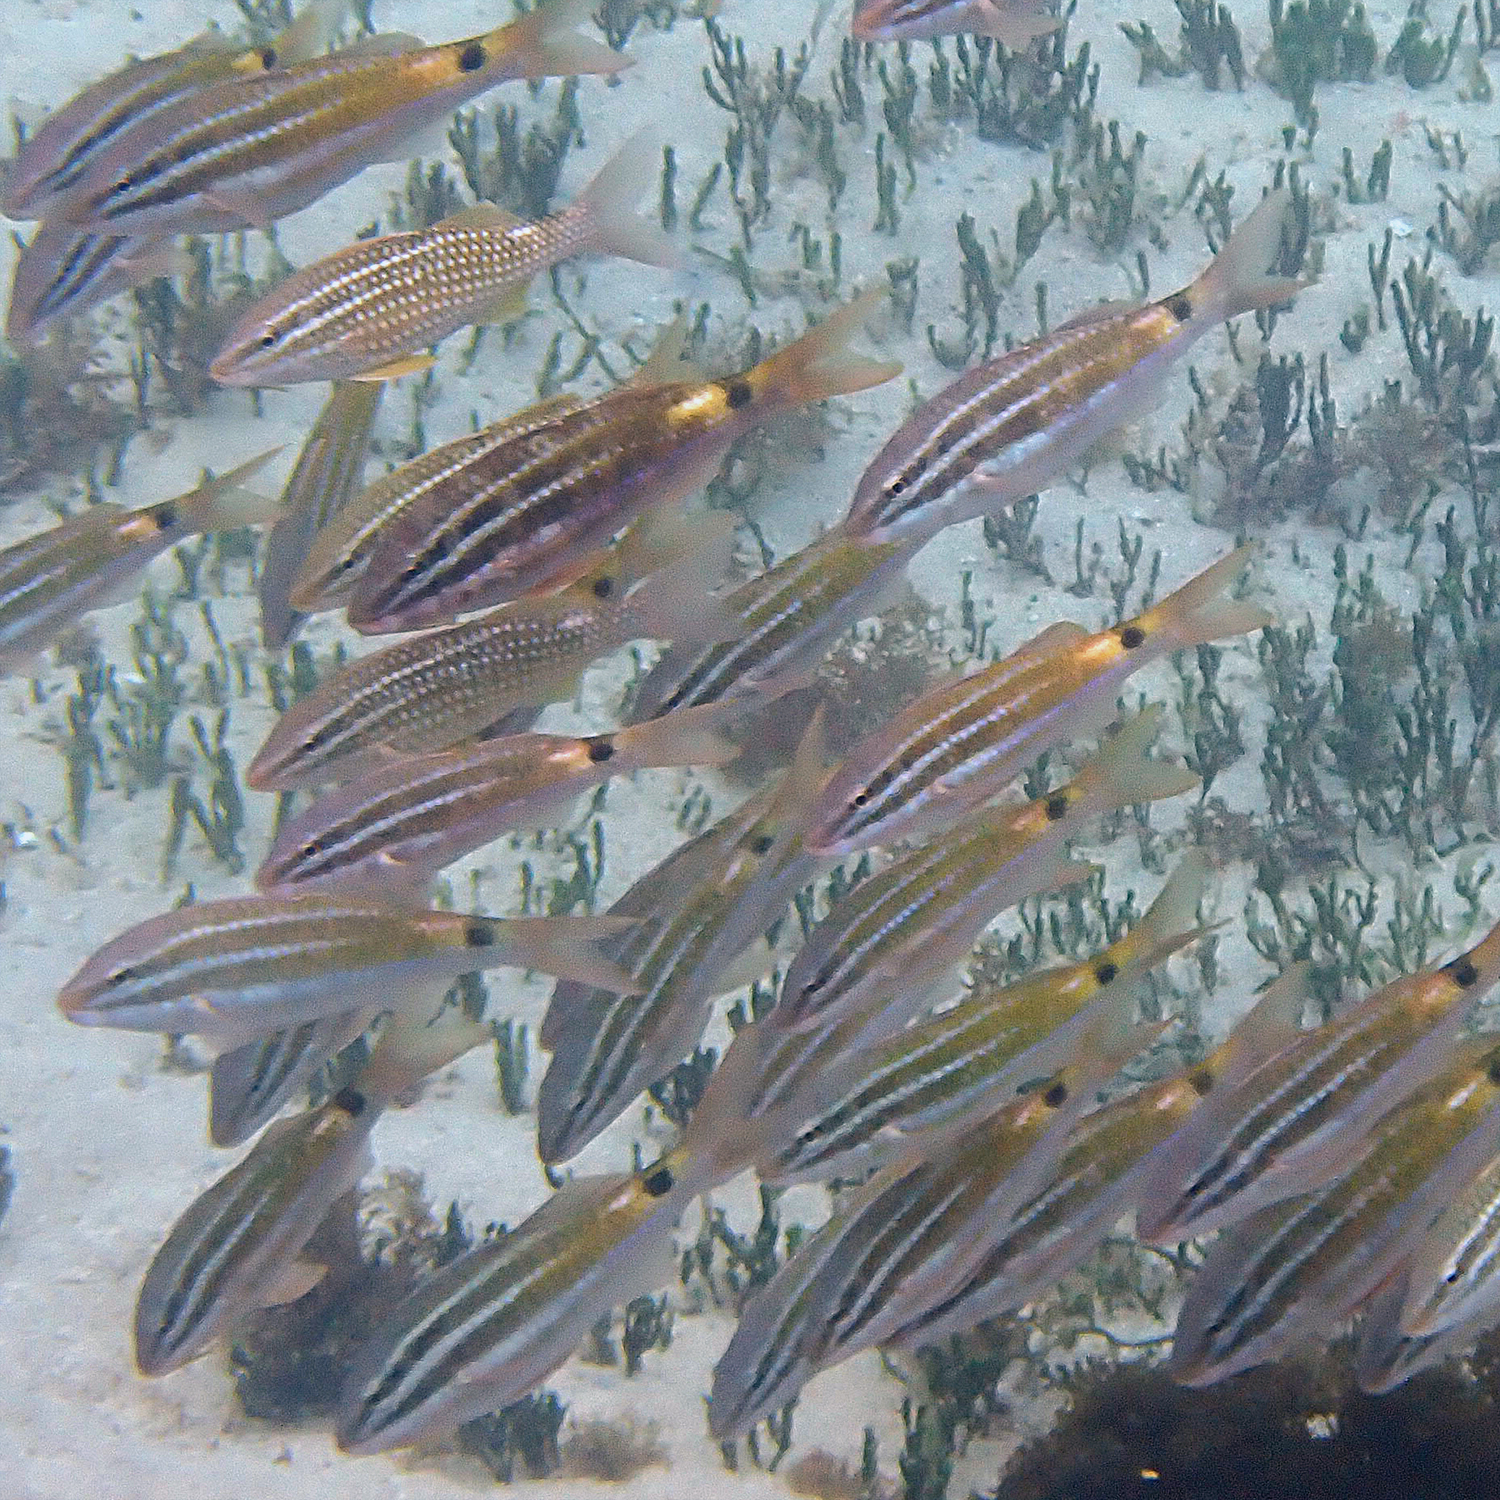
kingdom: Animalia
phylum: Chordata
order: Perciformes
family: Mullidae
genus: Parupeneus
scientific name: Parupeneus spilurus
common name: Blackspot goatfish
